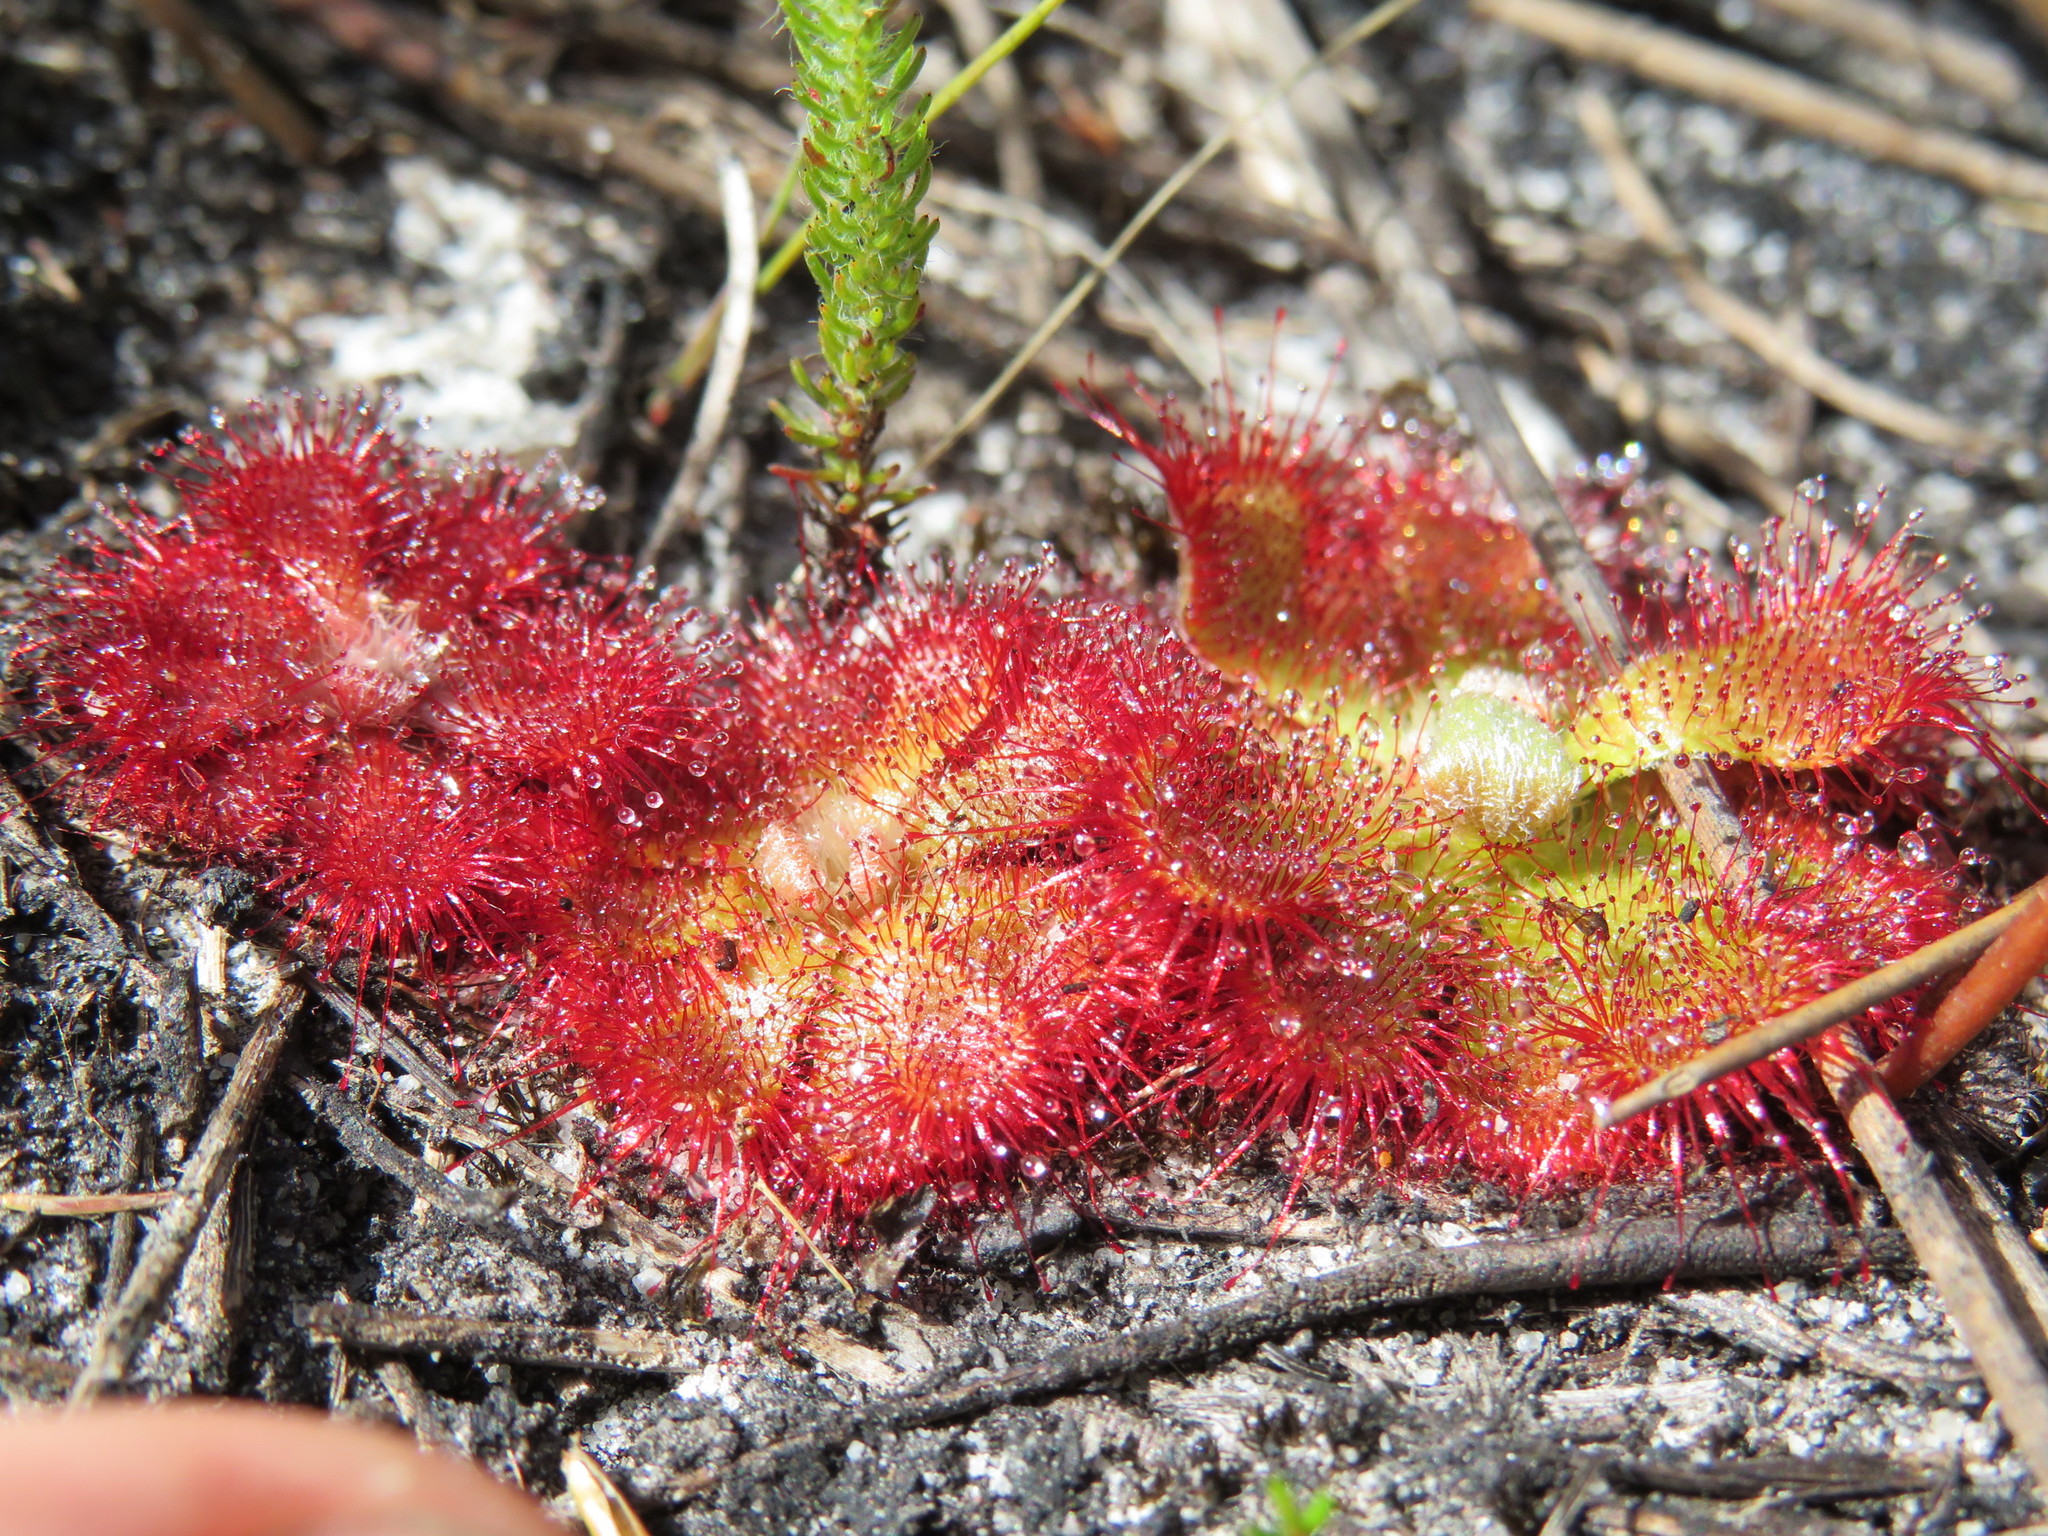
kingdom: Plantae
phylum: Tracheophyta
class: Magnoliopsida
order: Caryophyllales
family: Droseraceae
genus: Drosera
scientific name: Drosera aliciae
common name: Alice sundew
